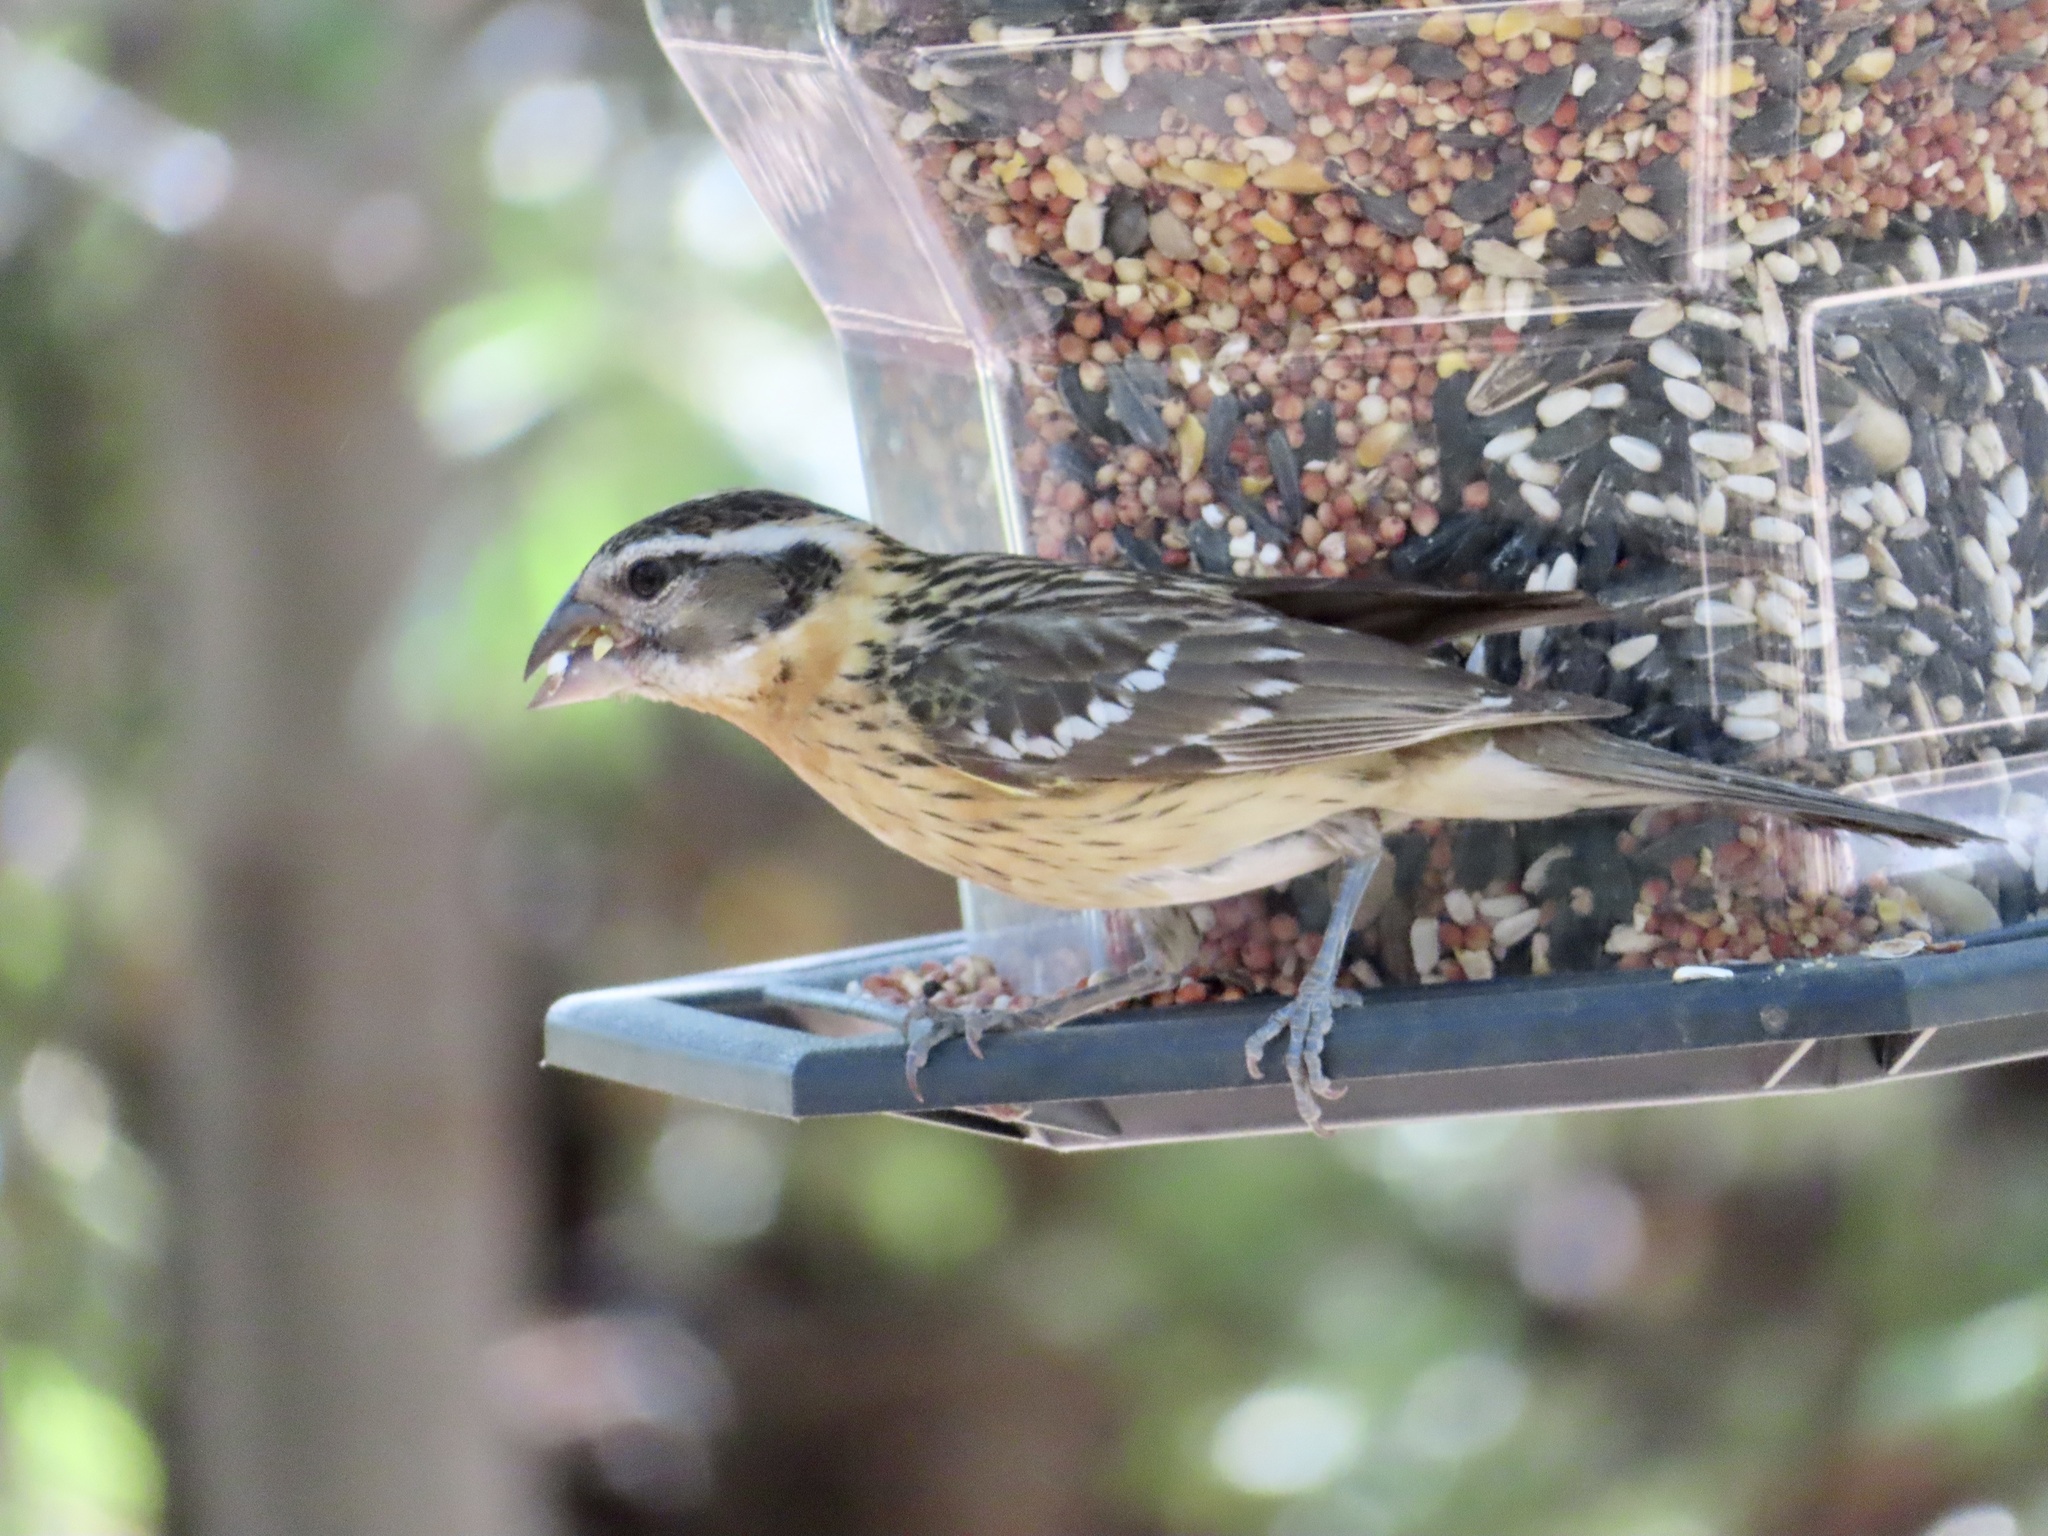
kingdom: Animalia
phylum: Chordata
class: Aves
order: Passeriformes
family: Cardinalidae
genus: Pheucticus
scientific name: Pheucticus melanocephalus
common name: Black-headed grosbeak
